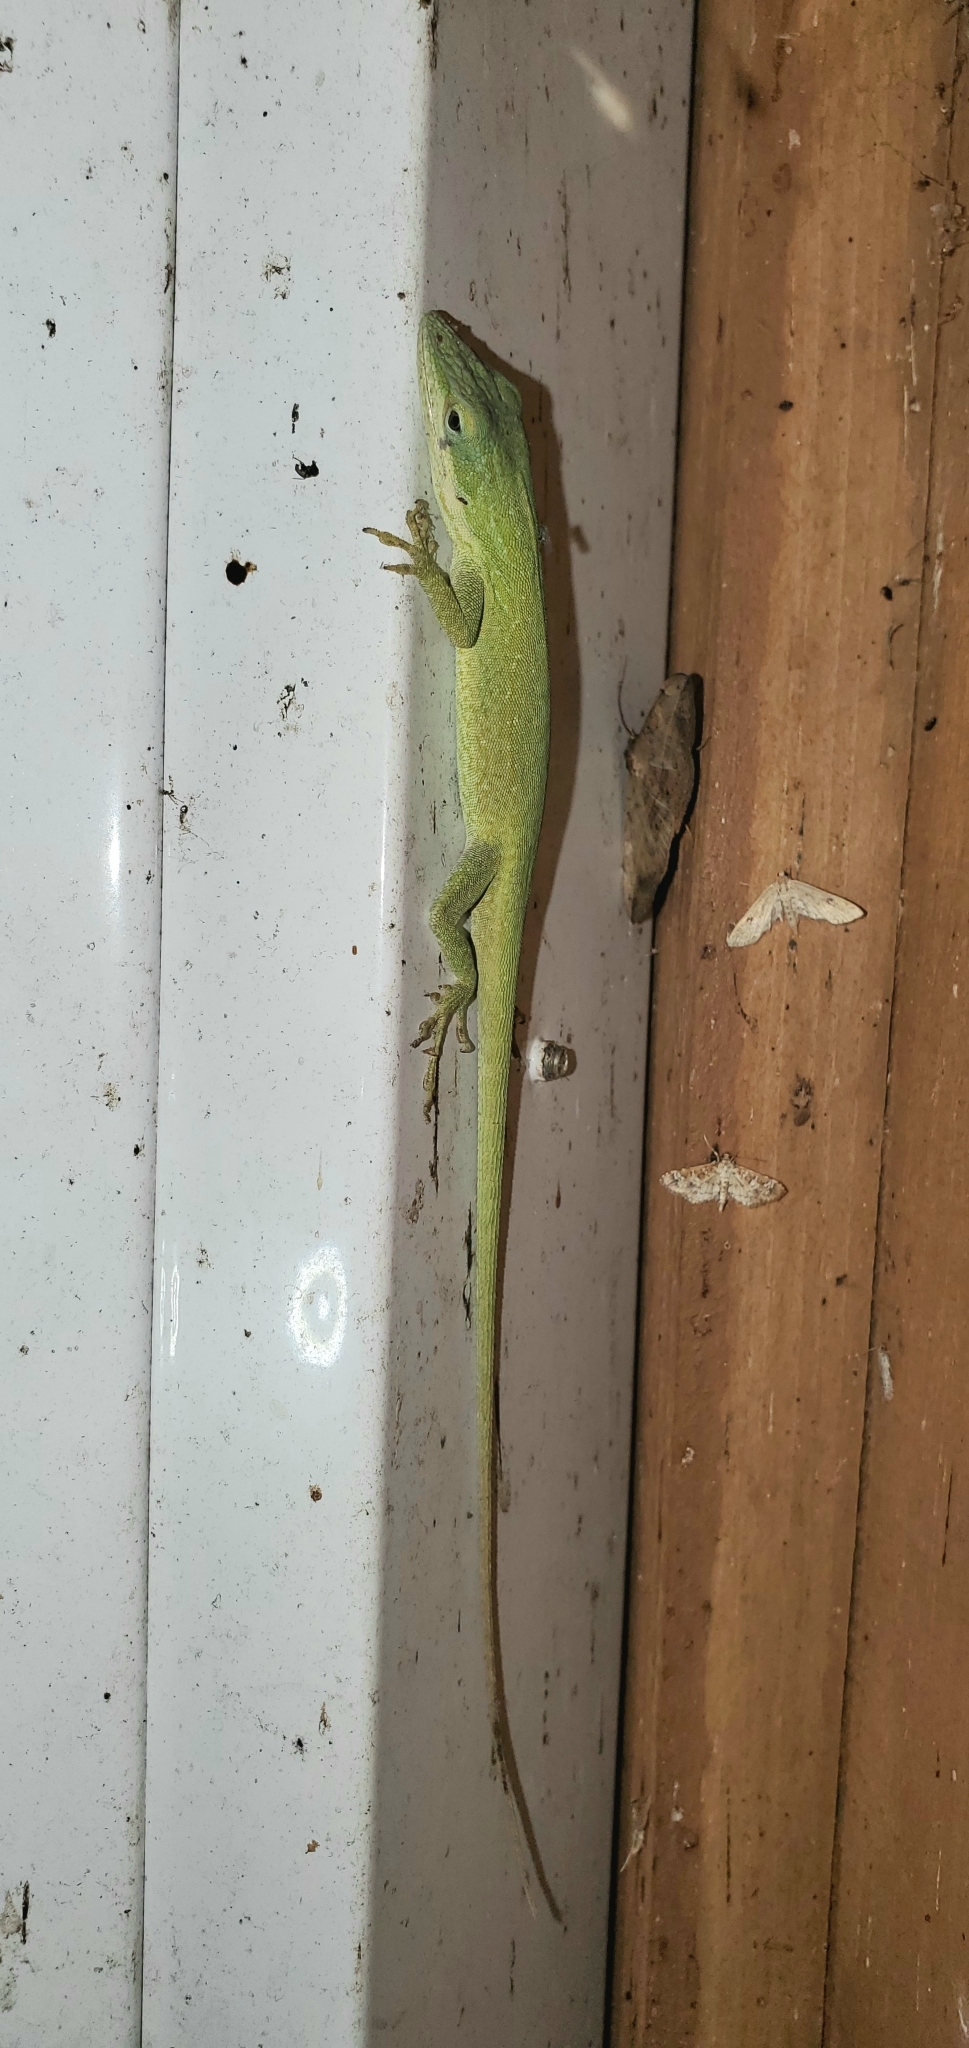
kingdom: Animalia
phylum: Chordata
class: Squamata
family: Dactyloidae
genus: Anolis
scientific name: Anolis carolinensis
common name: Green anole
